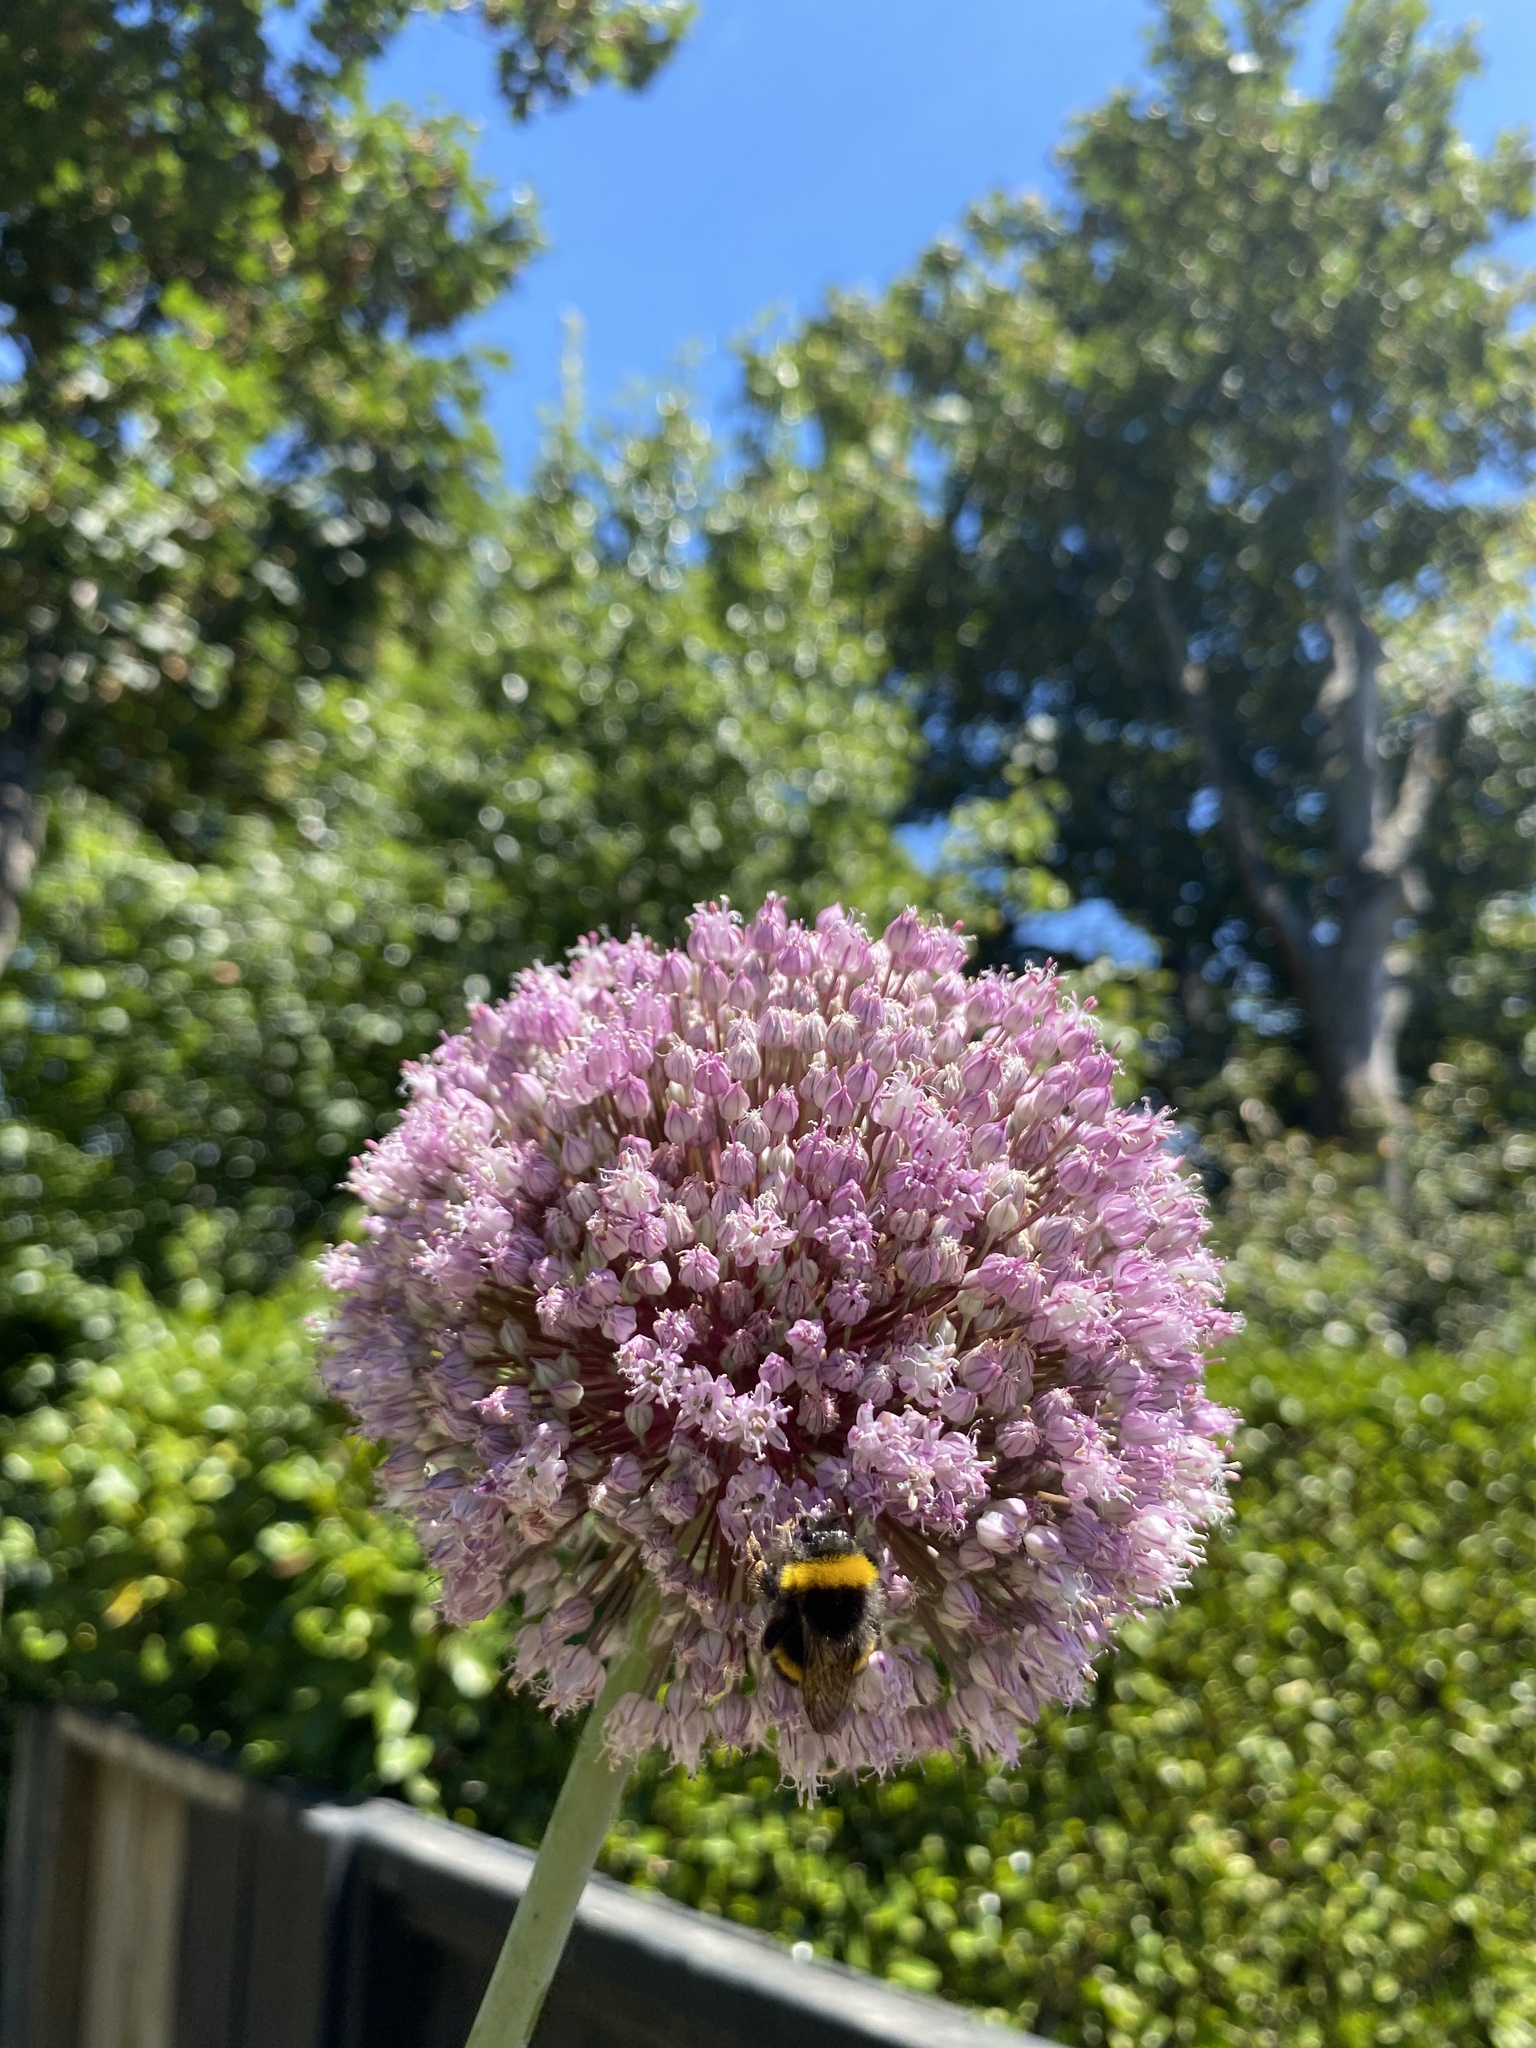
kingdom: Animalia
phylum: Arthropoda
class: Insecta
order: Hymenoptera
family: Apidae
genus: Bombus
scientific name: Bombus terrestris
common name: Buff-tailed bumblebee
